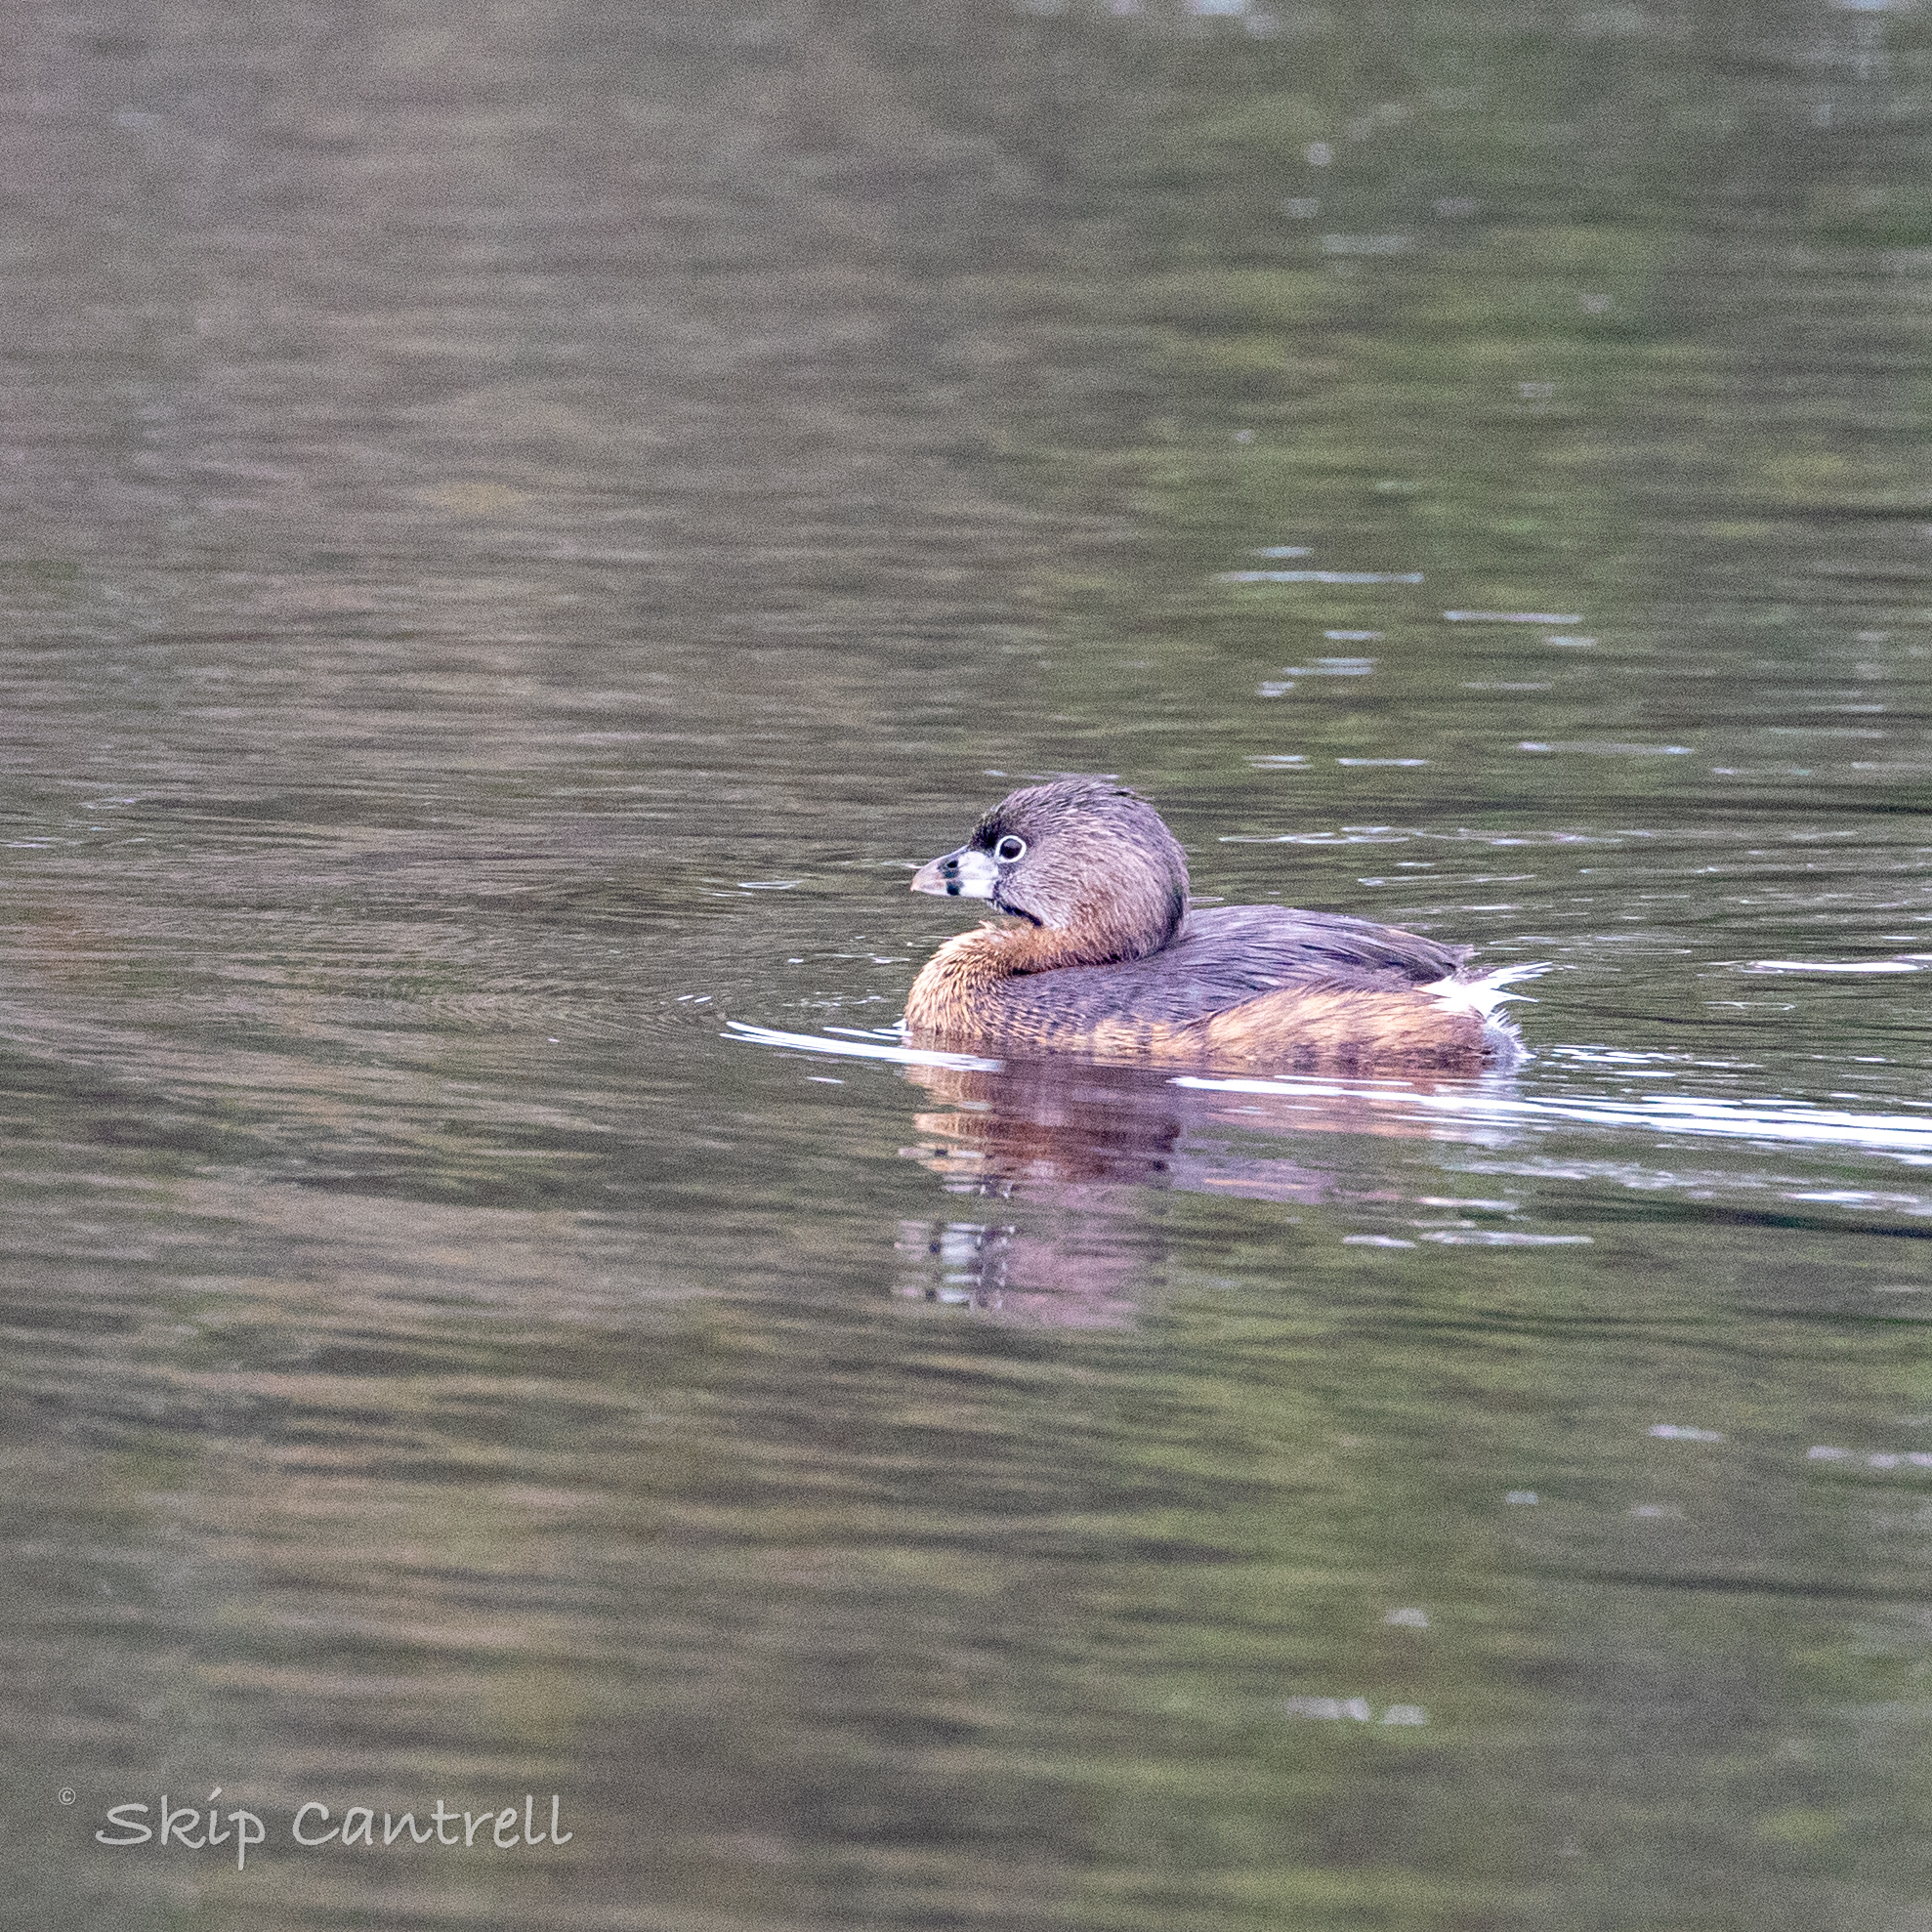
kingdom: Animalia
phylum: Chordata
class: Aves
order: Podicipediformes
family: Podicipedidae
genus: Podilymbus
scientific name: Podilymbus podiceps
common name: Pied-billed grebe
